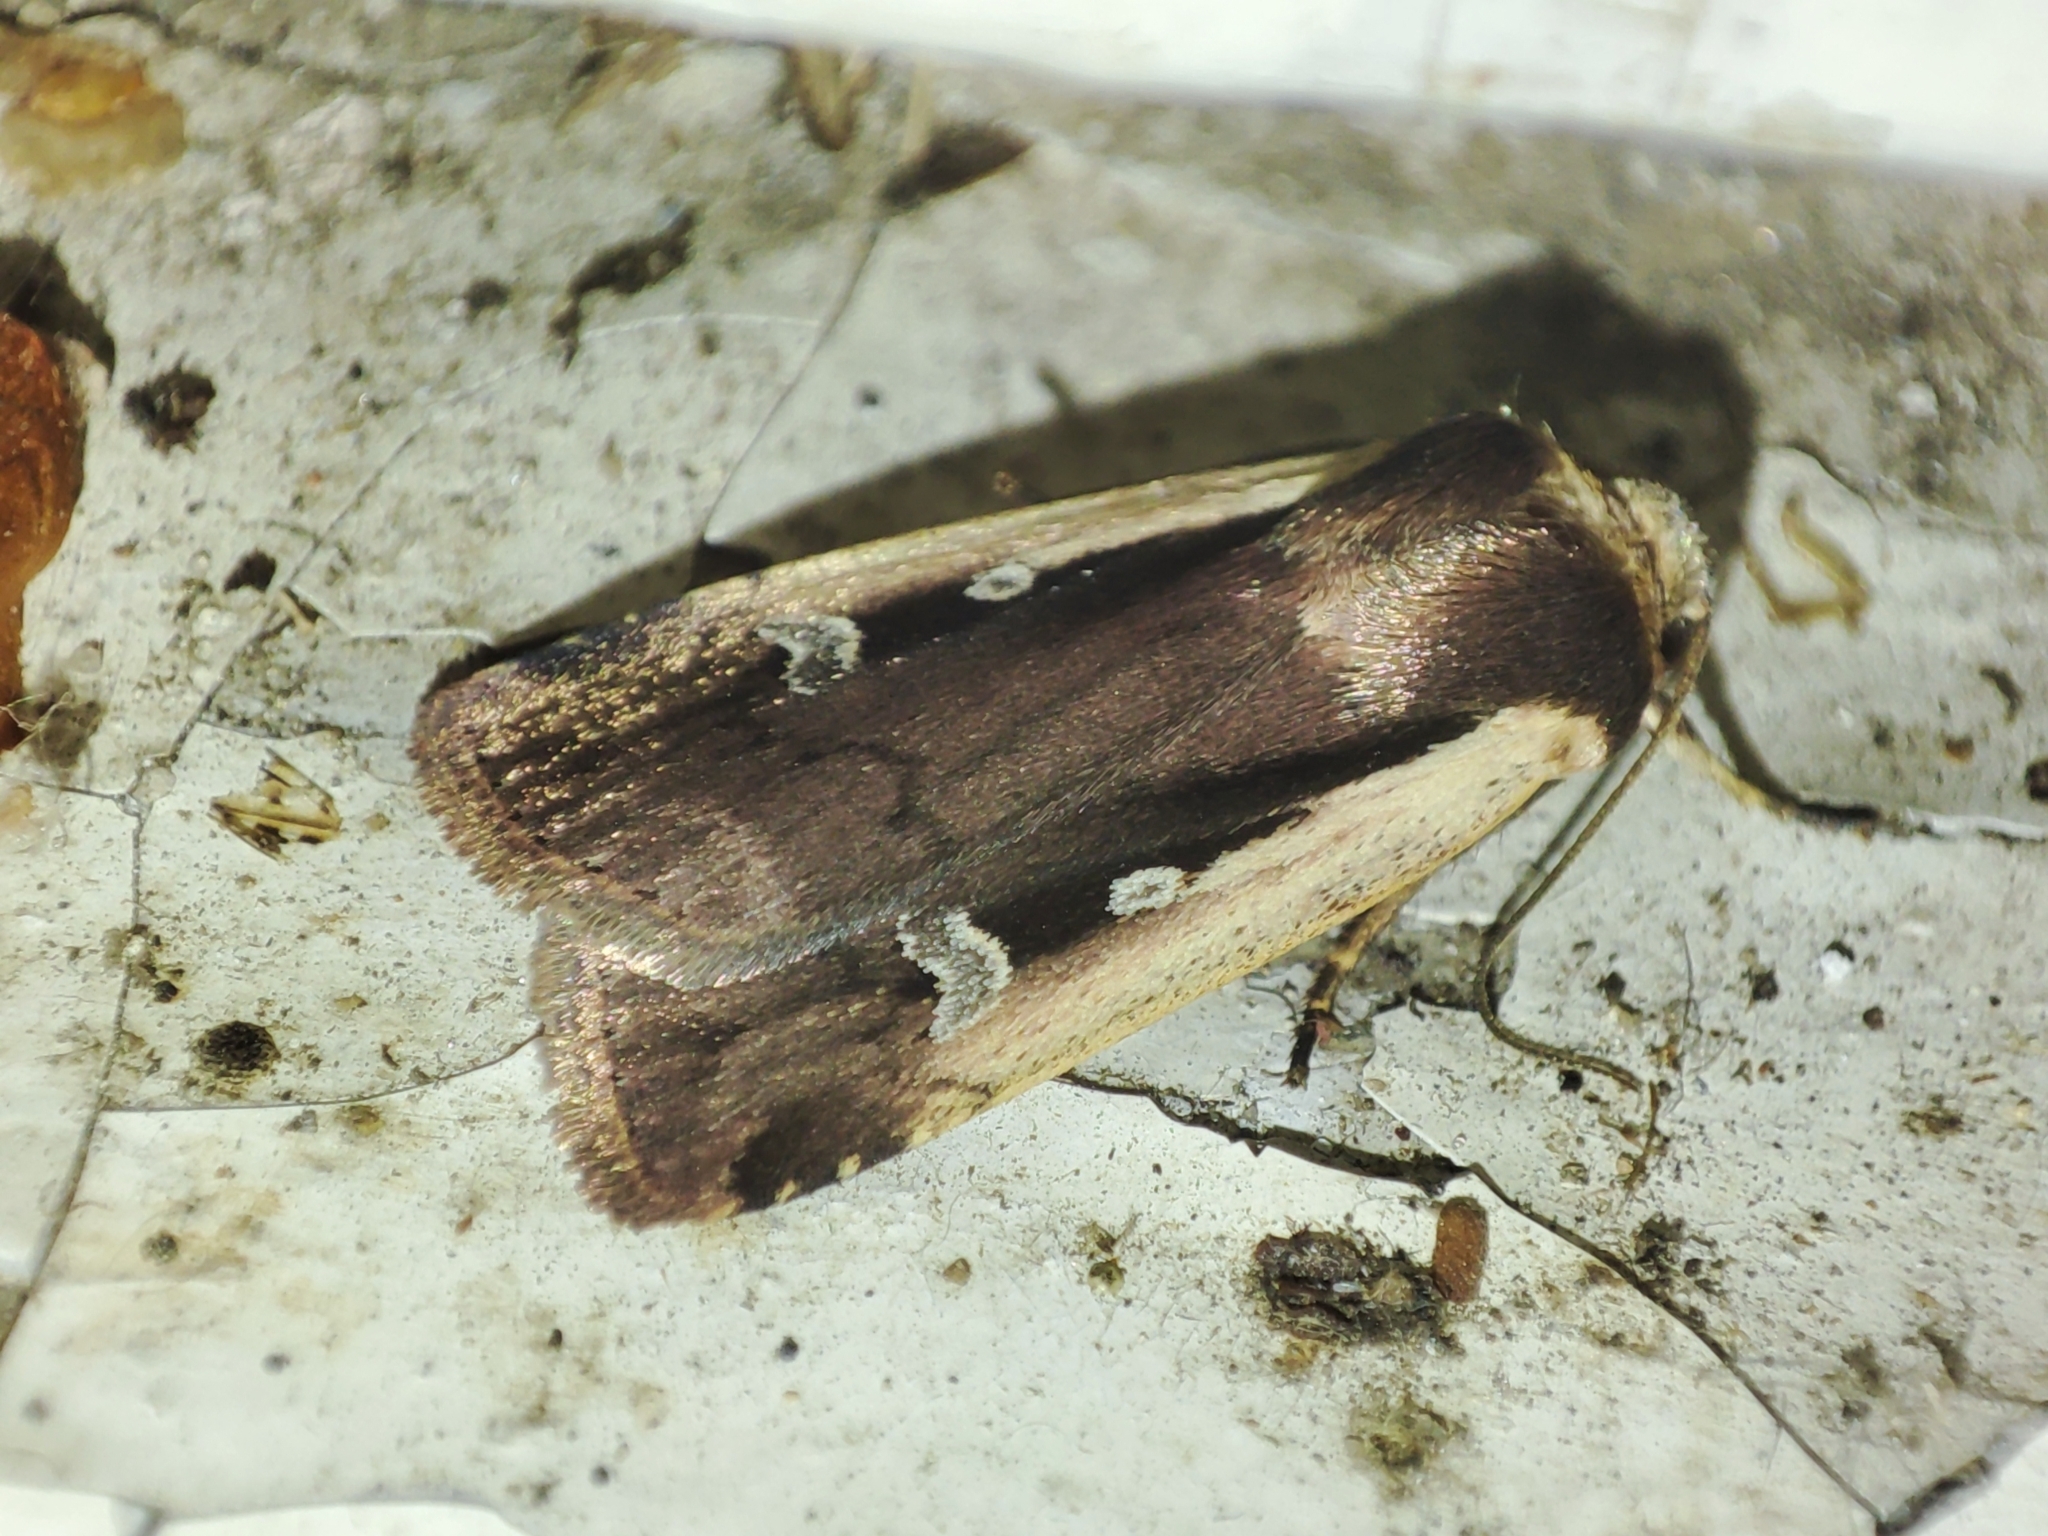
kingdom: Animalia
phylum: Arthropoda
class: Insecta
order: Lepidoptera
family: Noctuidae
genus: Ochropleura
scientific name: Ochropleura plecta
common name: Flame shoulder
